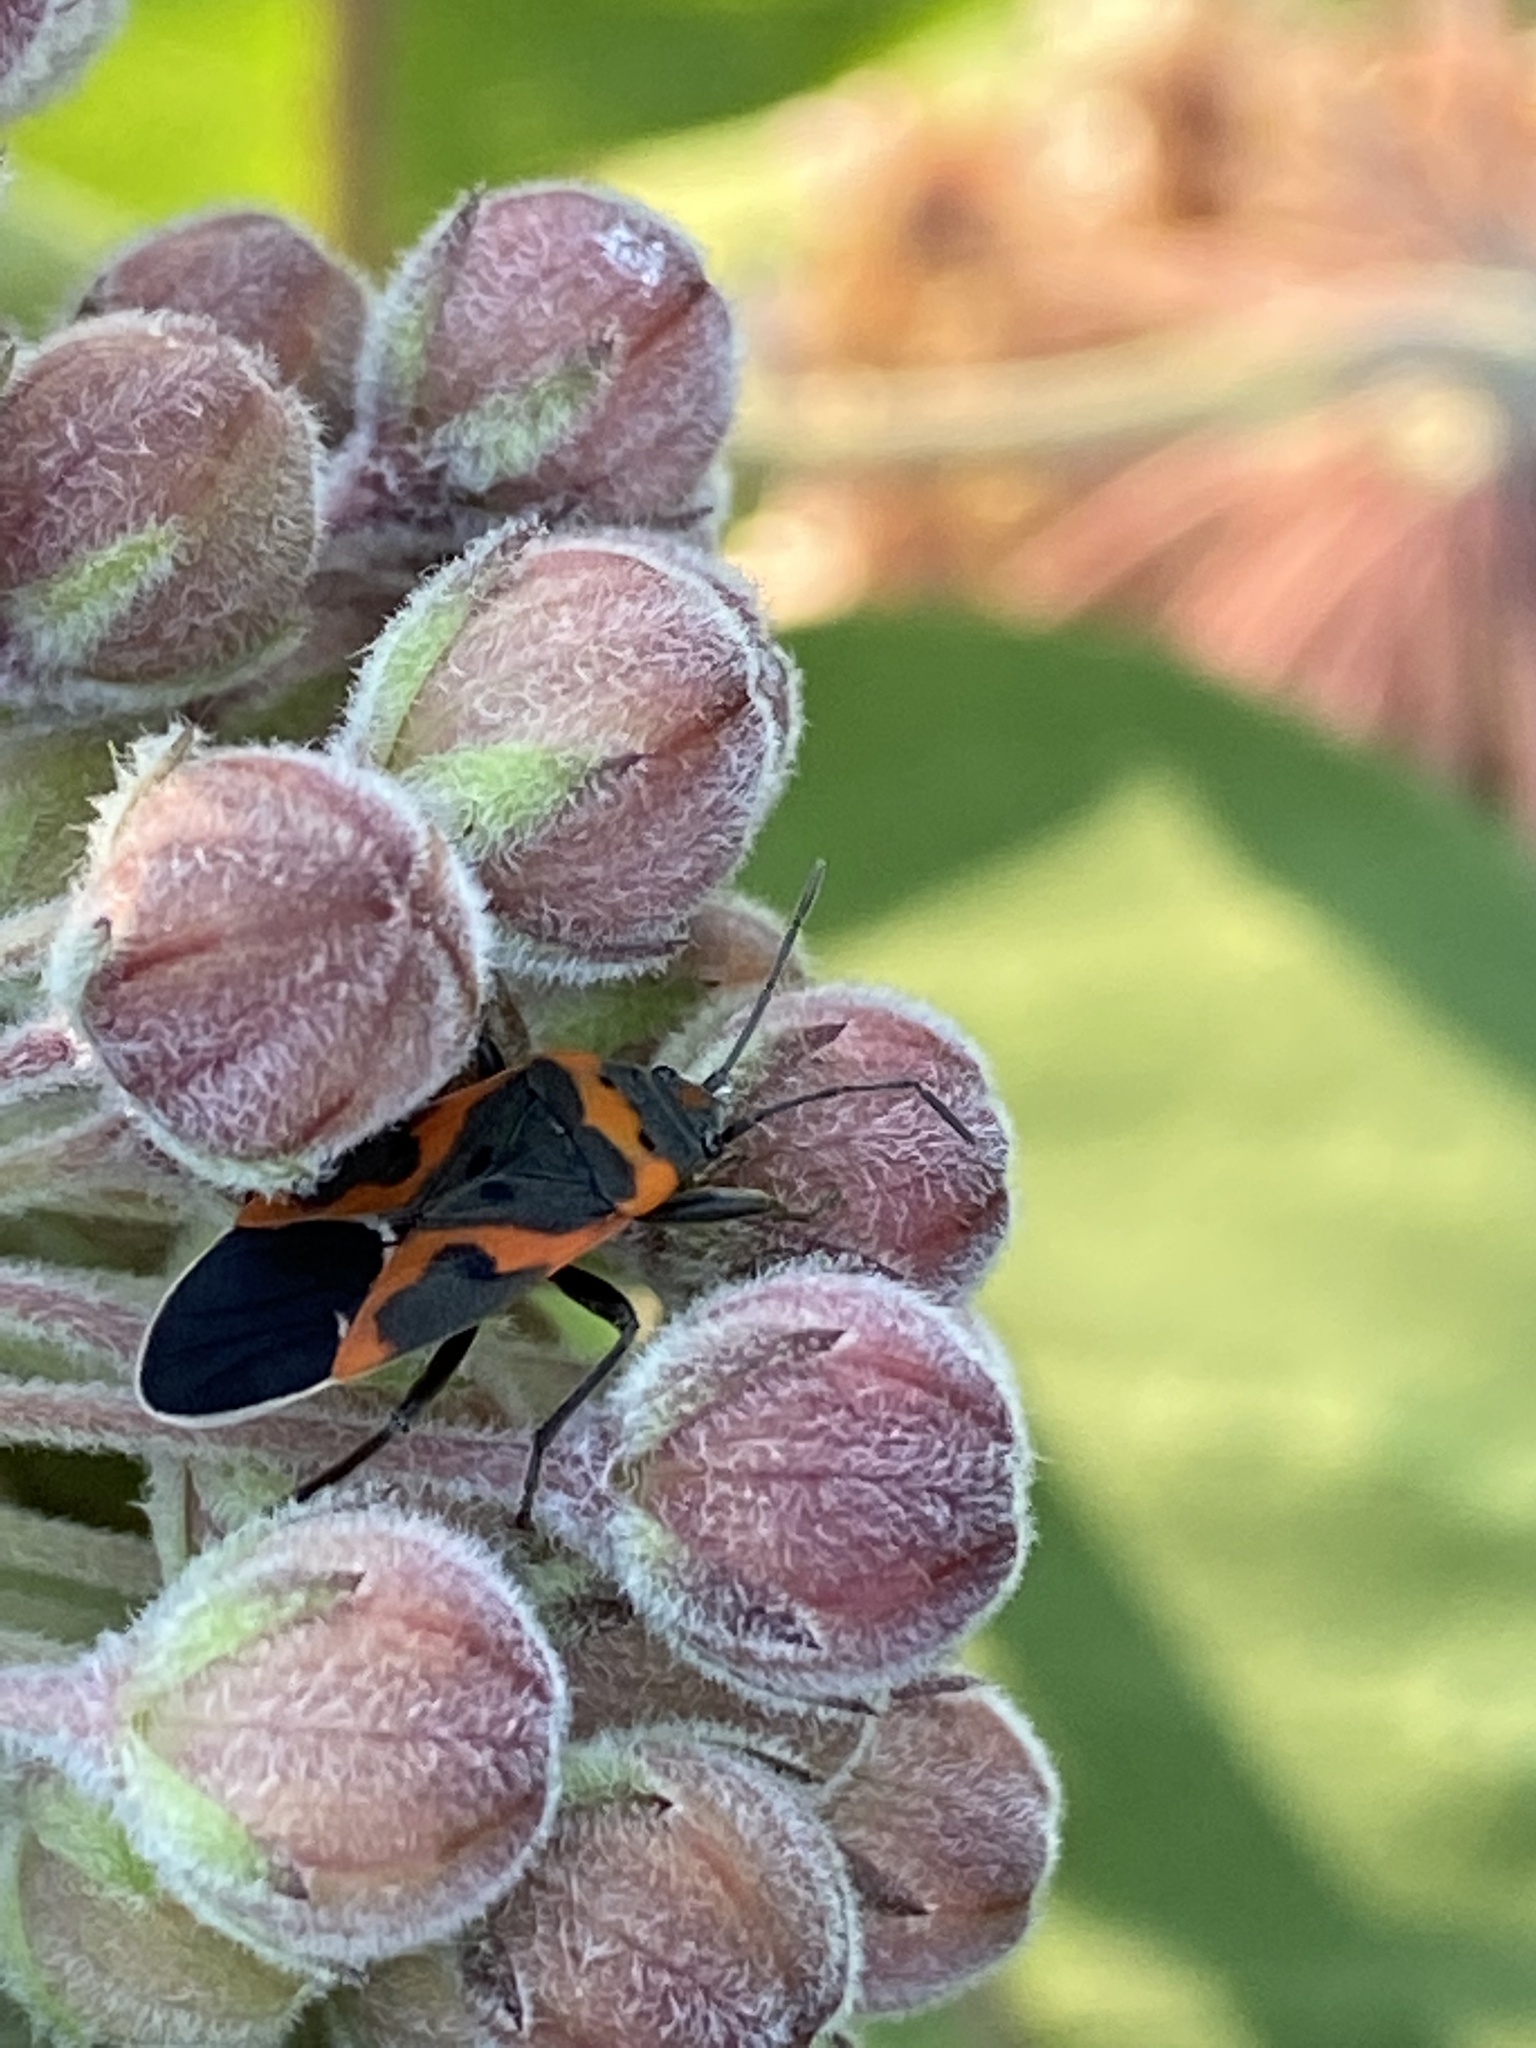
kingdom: Animalia
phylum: Arthropoda
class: Insecta
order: Hemiptera
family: Lygaeidae
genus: Lygaeus
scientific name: Lygaeus kalmii
